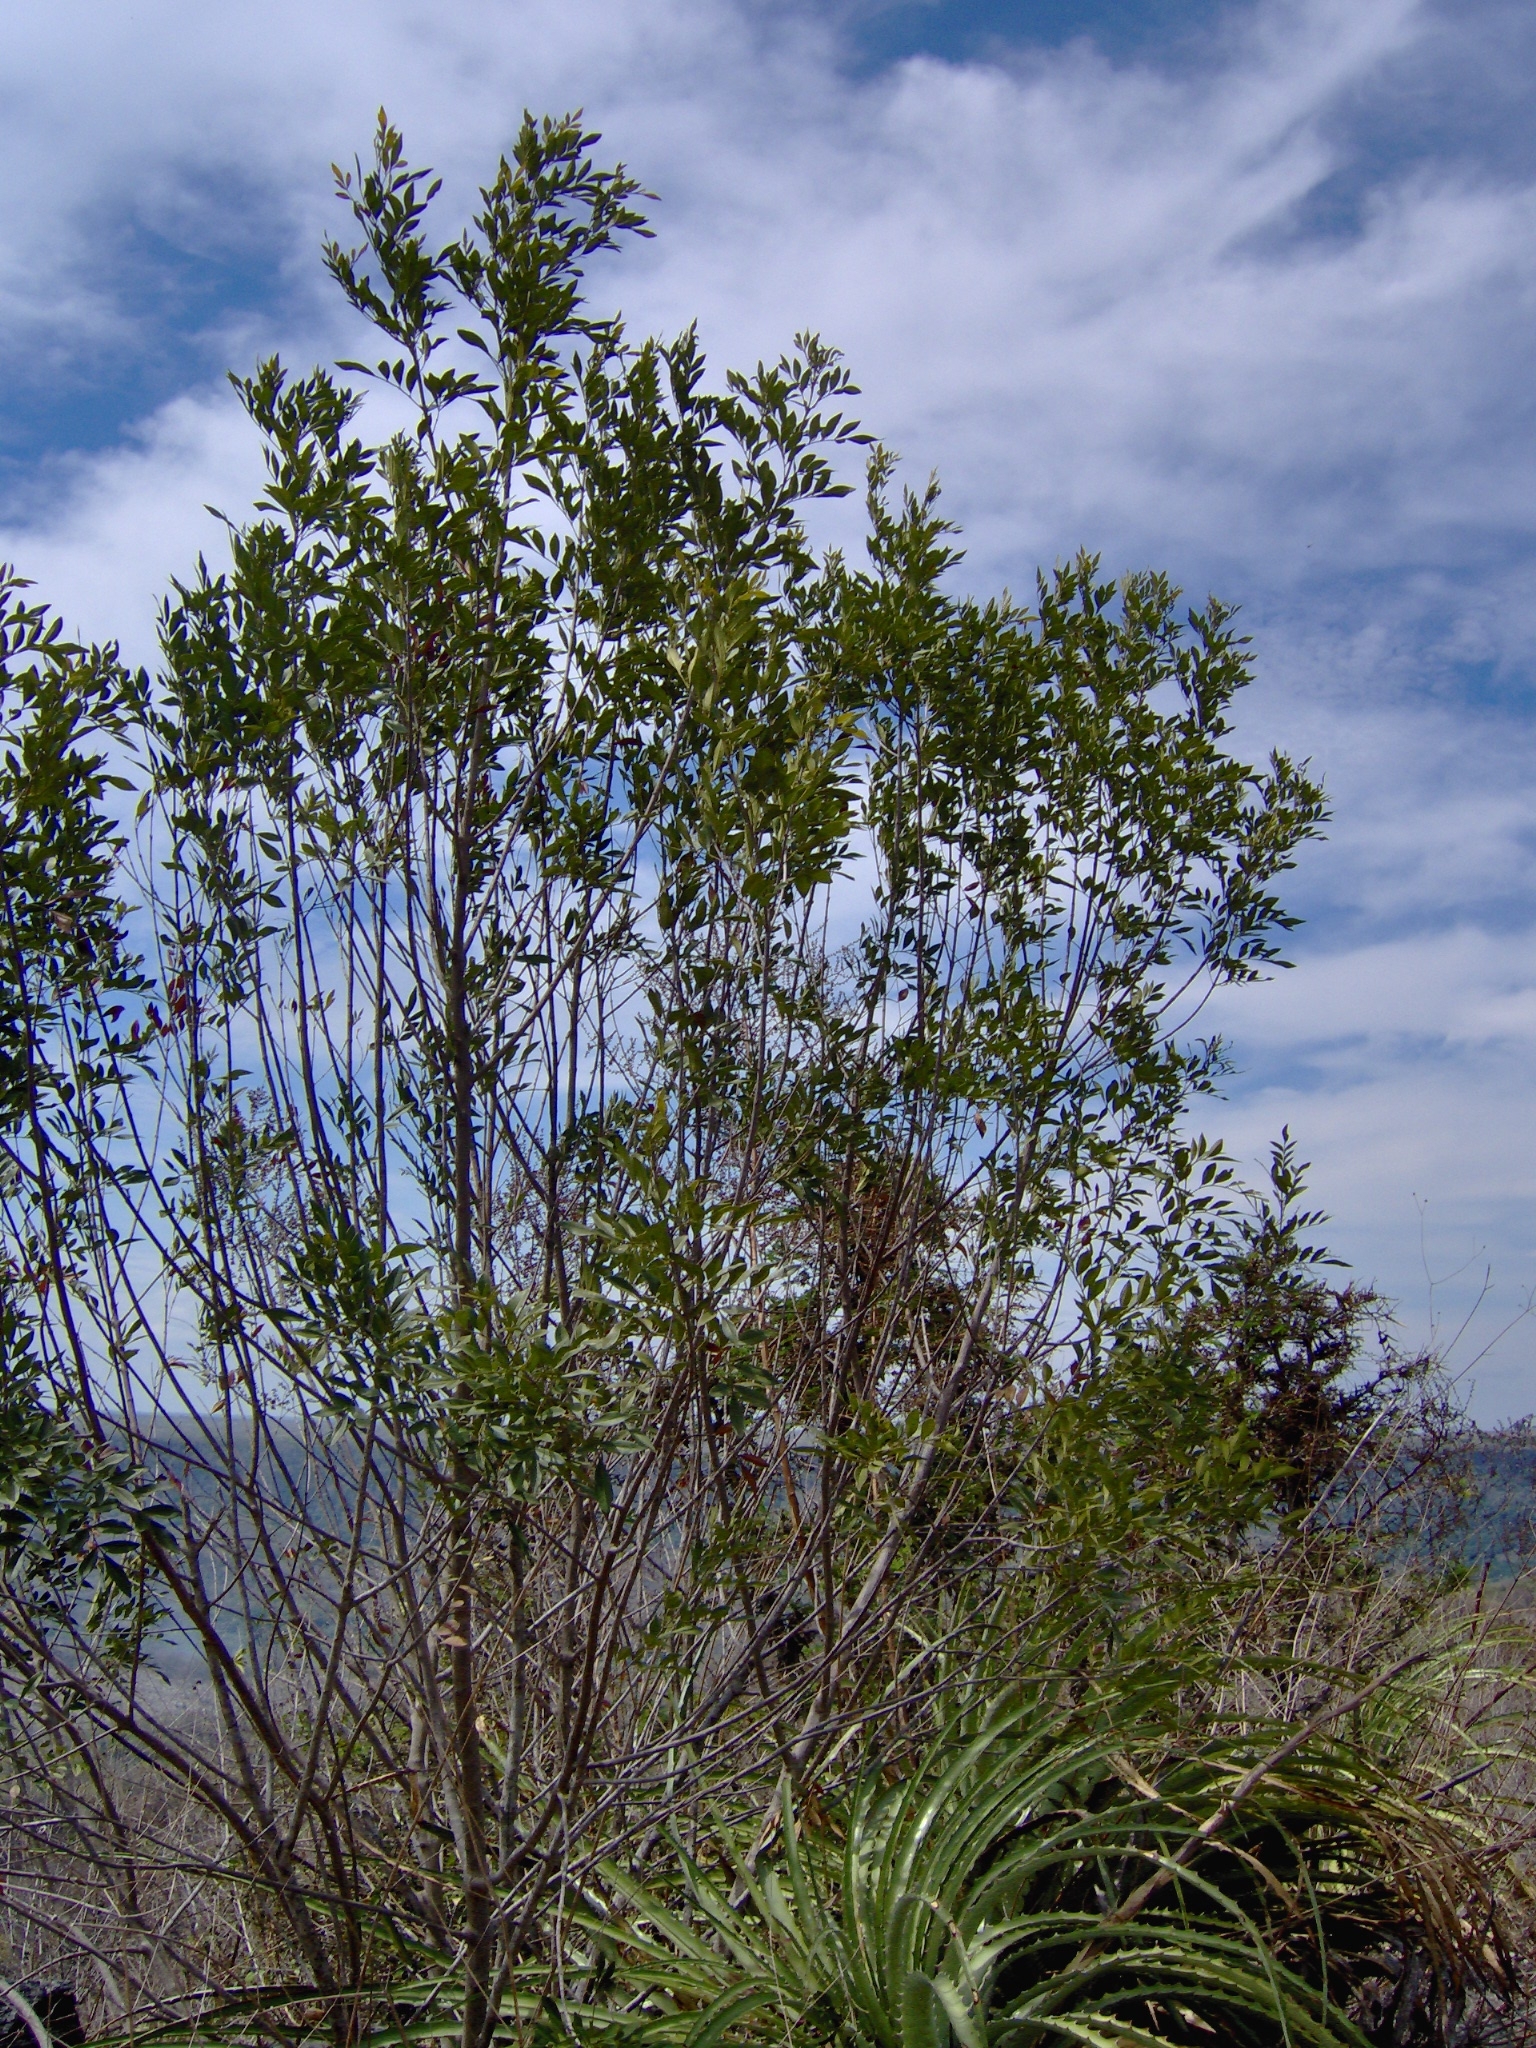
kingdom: Plantae
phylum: Tracheophyta
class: Magnoliopsida
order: Lamiales
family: Oleaceae
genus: Fraxinus
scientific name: Fraxinus schiedeana
